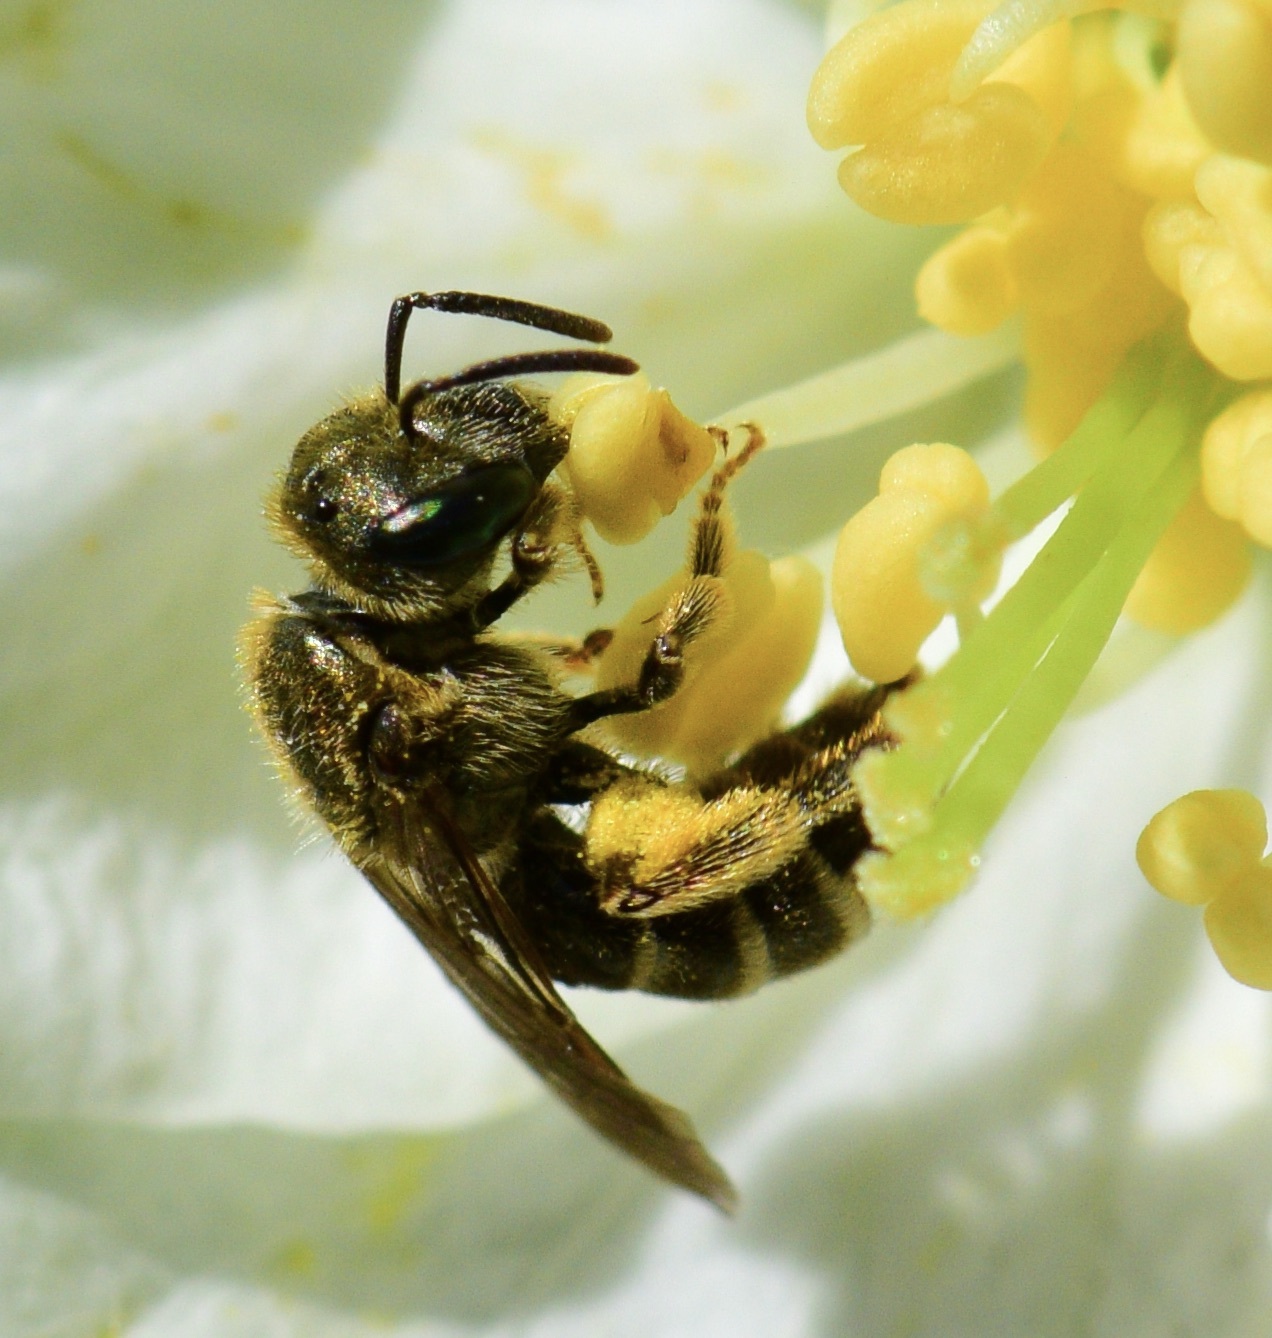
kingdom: Animalia
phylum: Arthropoda
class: Insecta
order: Hymenoptera
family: Halictidae
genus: Halictus
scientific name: Halictus confusus
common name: Southern bronze furrow bee
